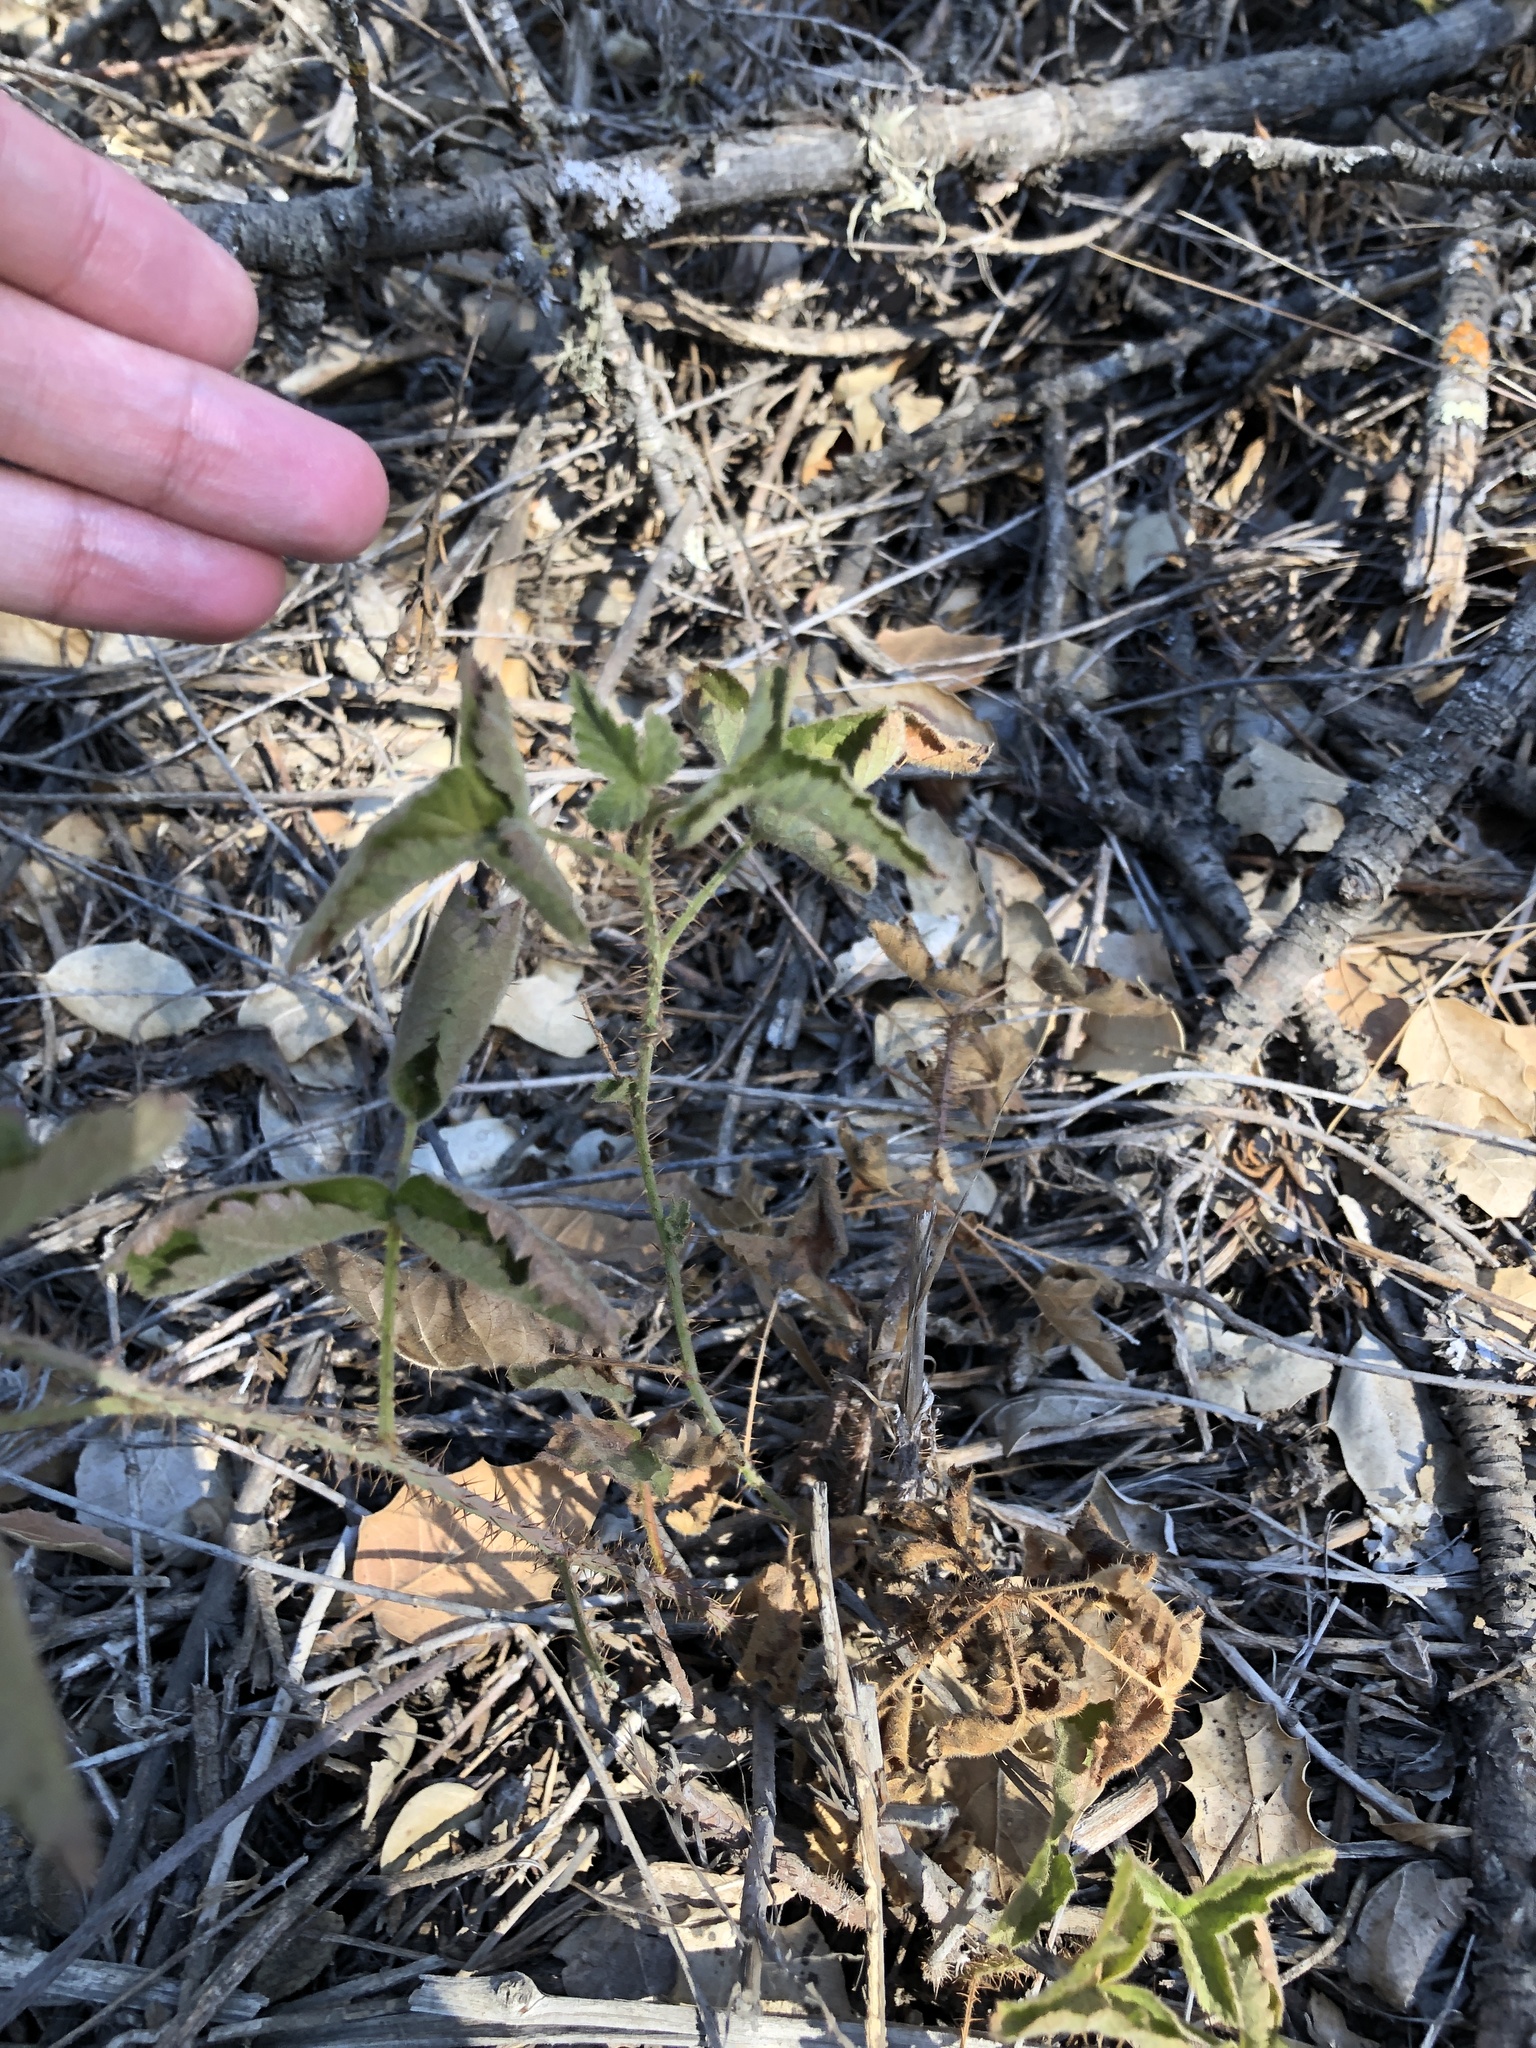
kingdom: Plantae
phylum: Tracheophyta
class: Magnoliopsida
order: Rosales
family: Rosaceae
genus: Rubus
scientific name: Rubus ursinus
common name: Pacific blackberry
